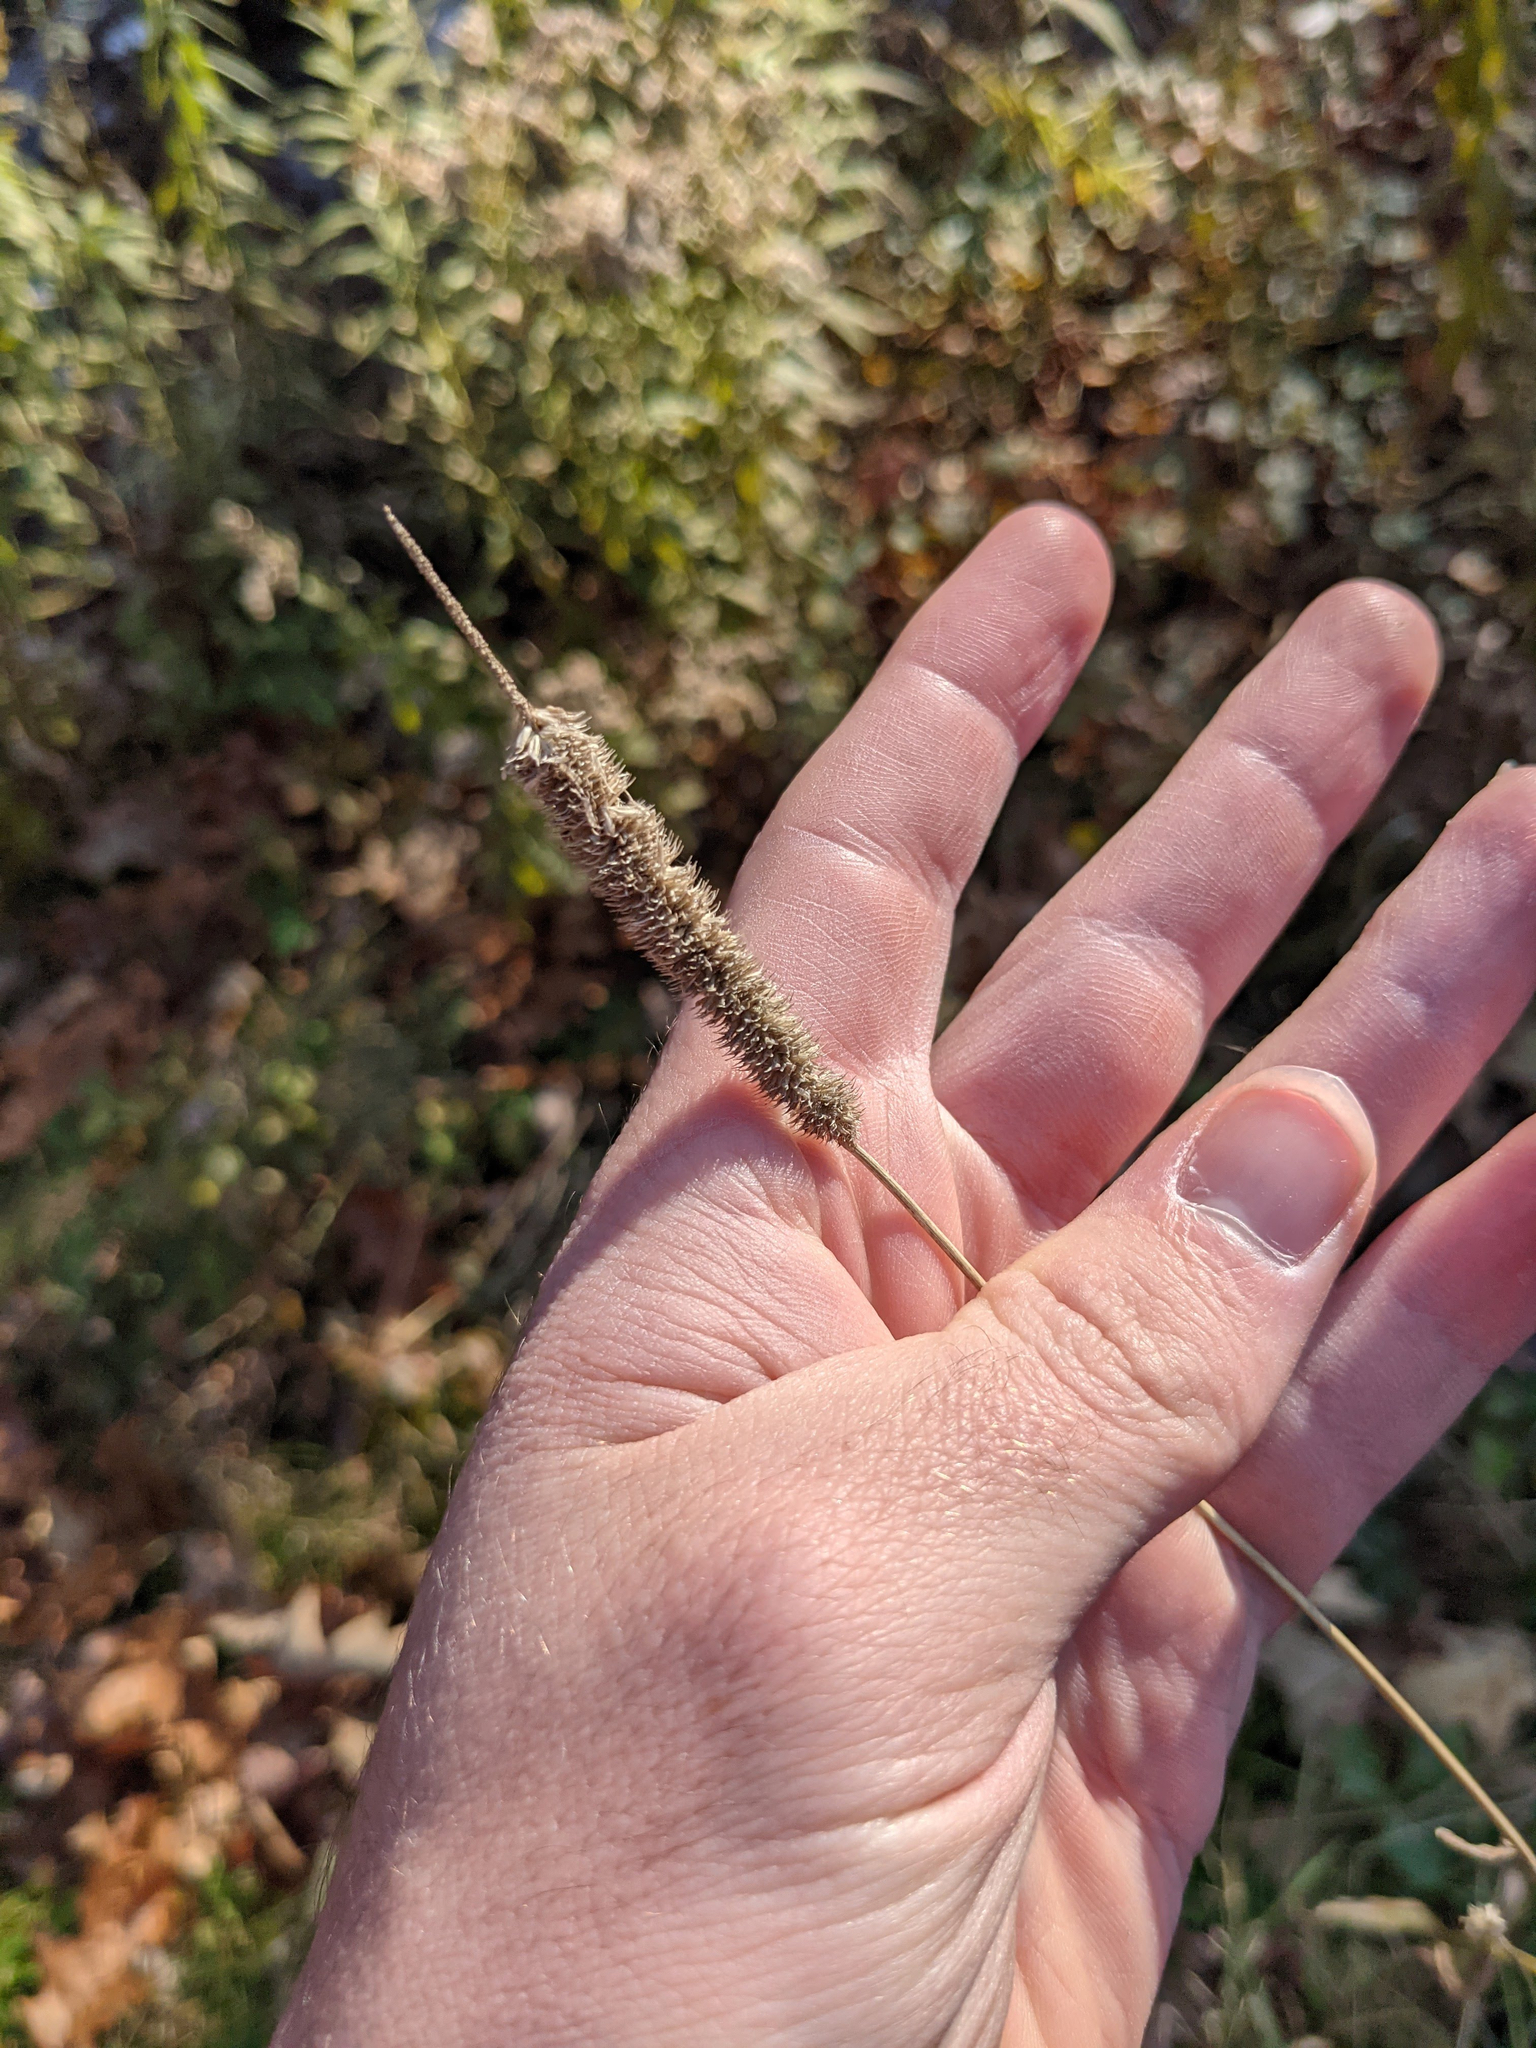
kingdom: Plantae
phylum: Tracheophyta
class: Liliopsida
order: Poales
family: Poaceae
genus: Phleum
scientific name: Phleum pratense
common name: Timothy grass
